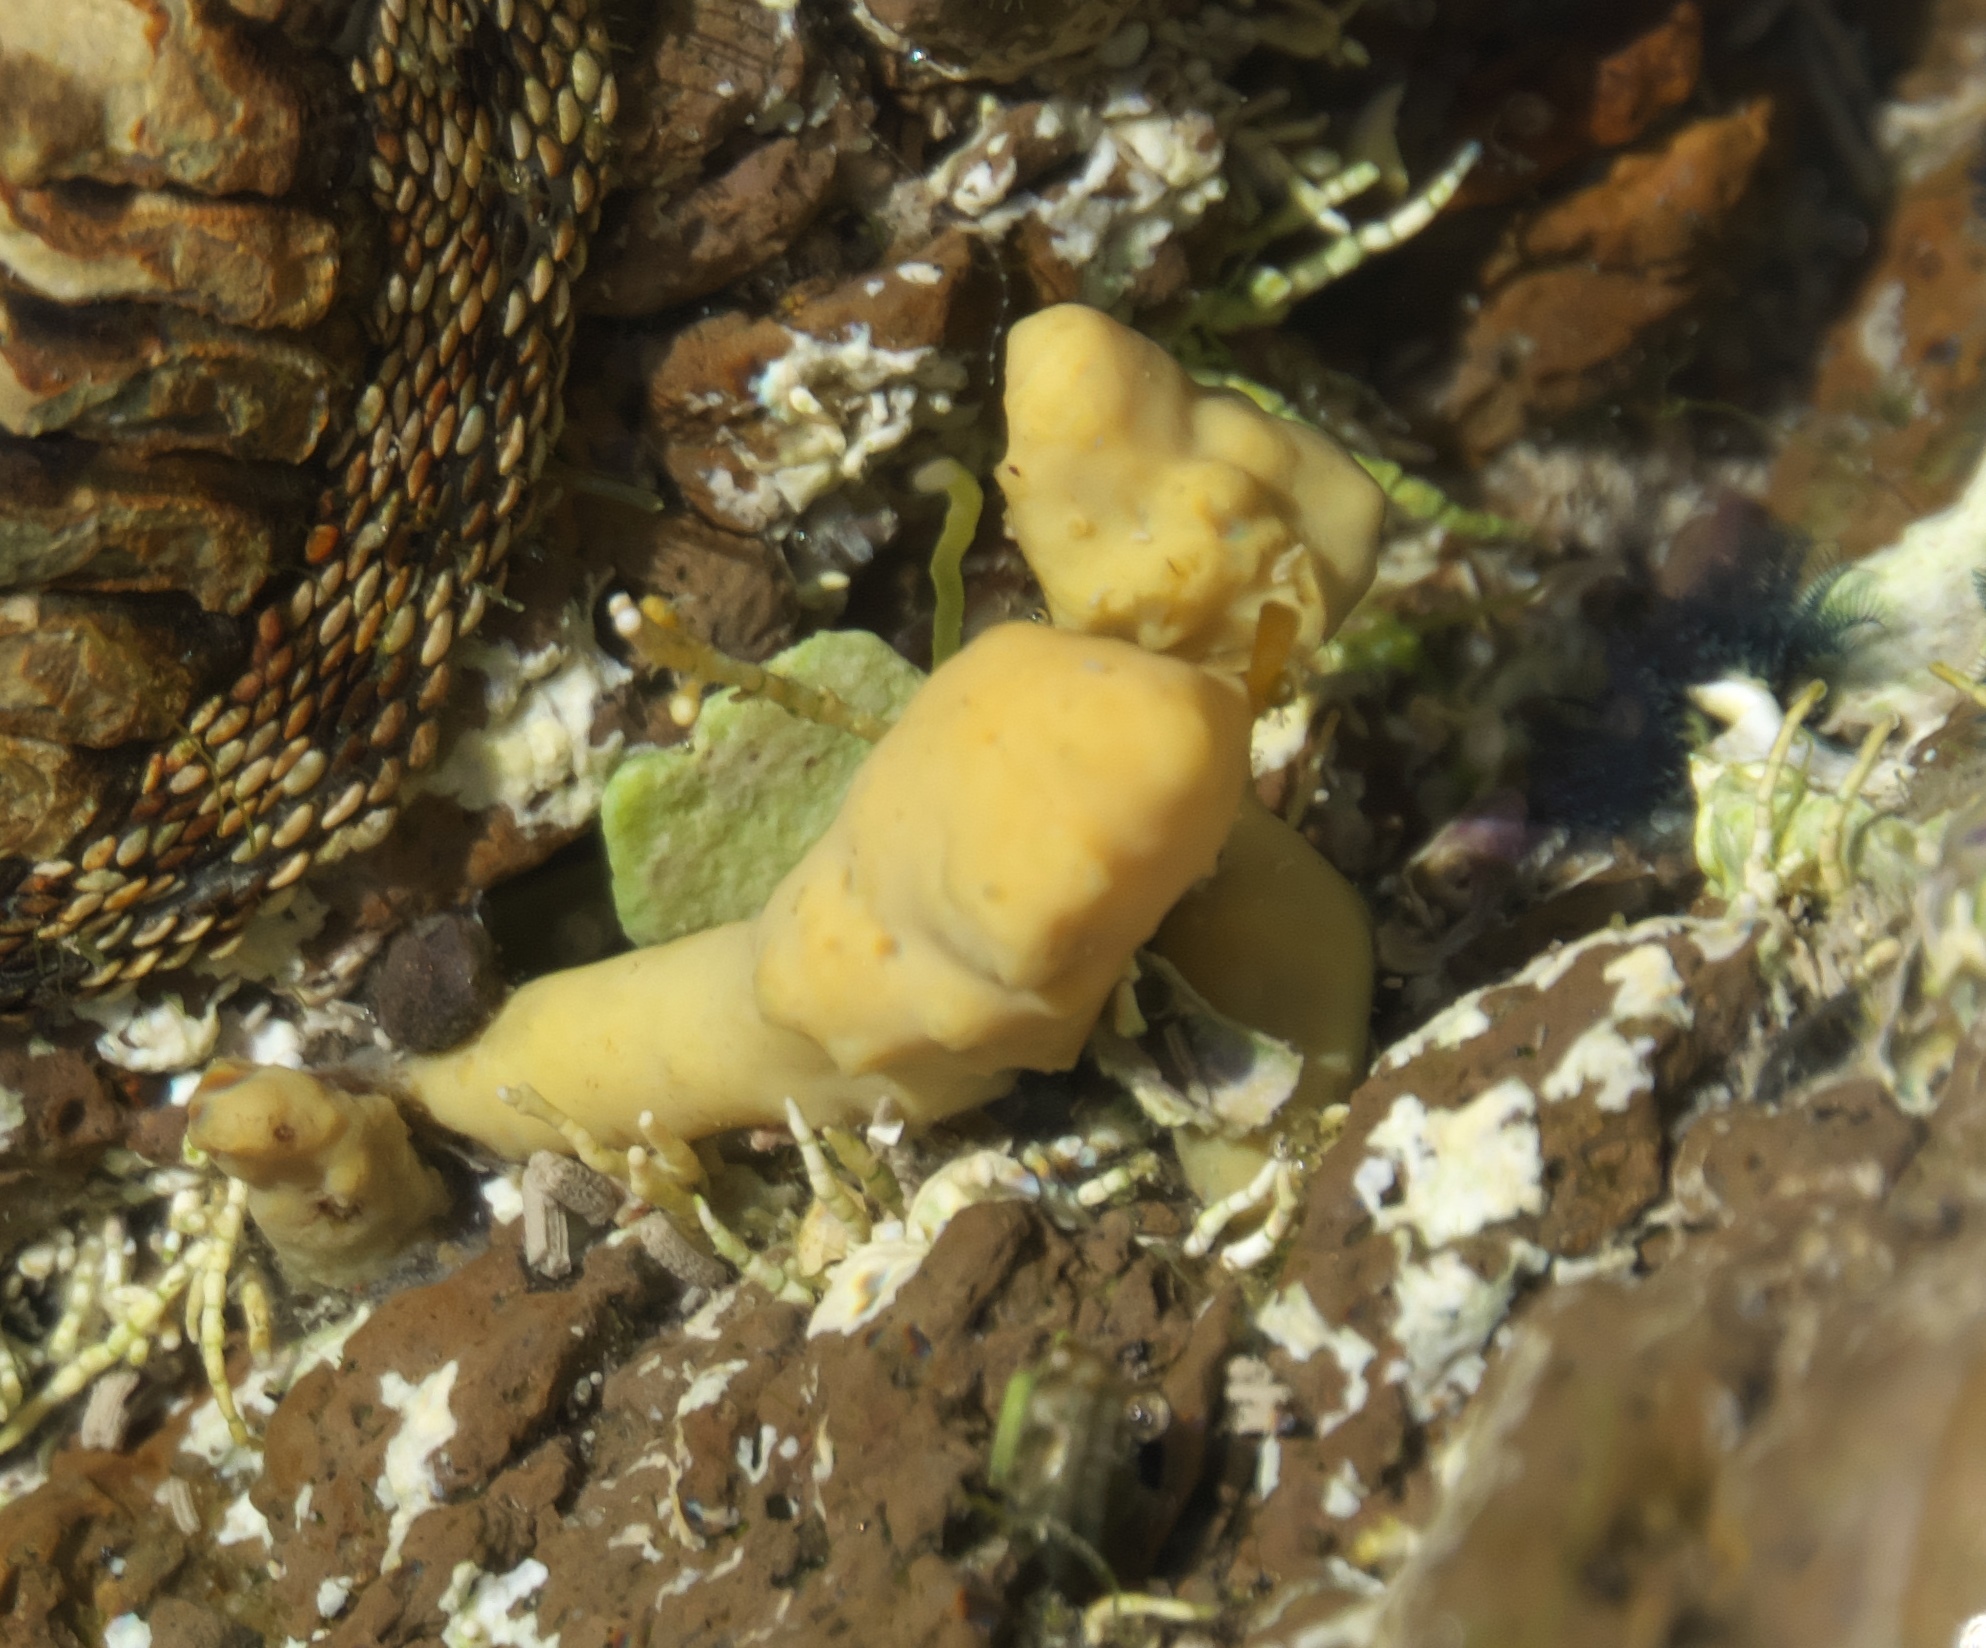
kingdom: Chromista
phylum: Ochrophyta
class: Phaeophyceae
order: Fucales
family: Hormosiraceae
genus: Hormosira
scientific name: Hormosira banksii
